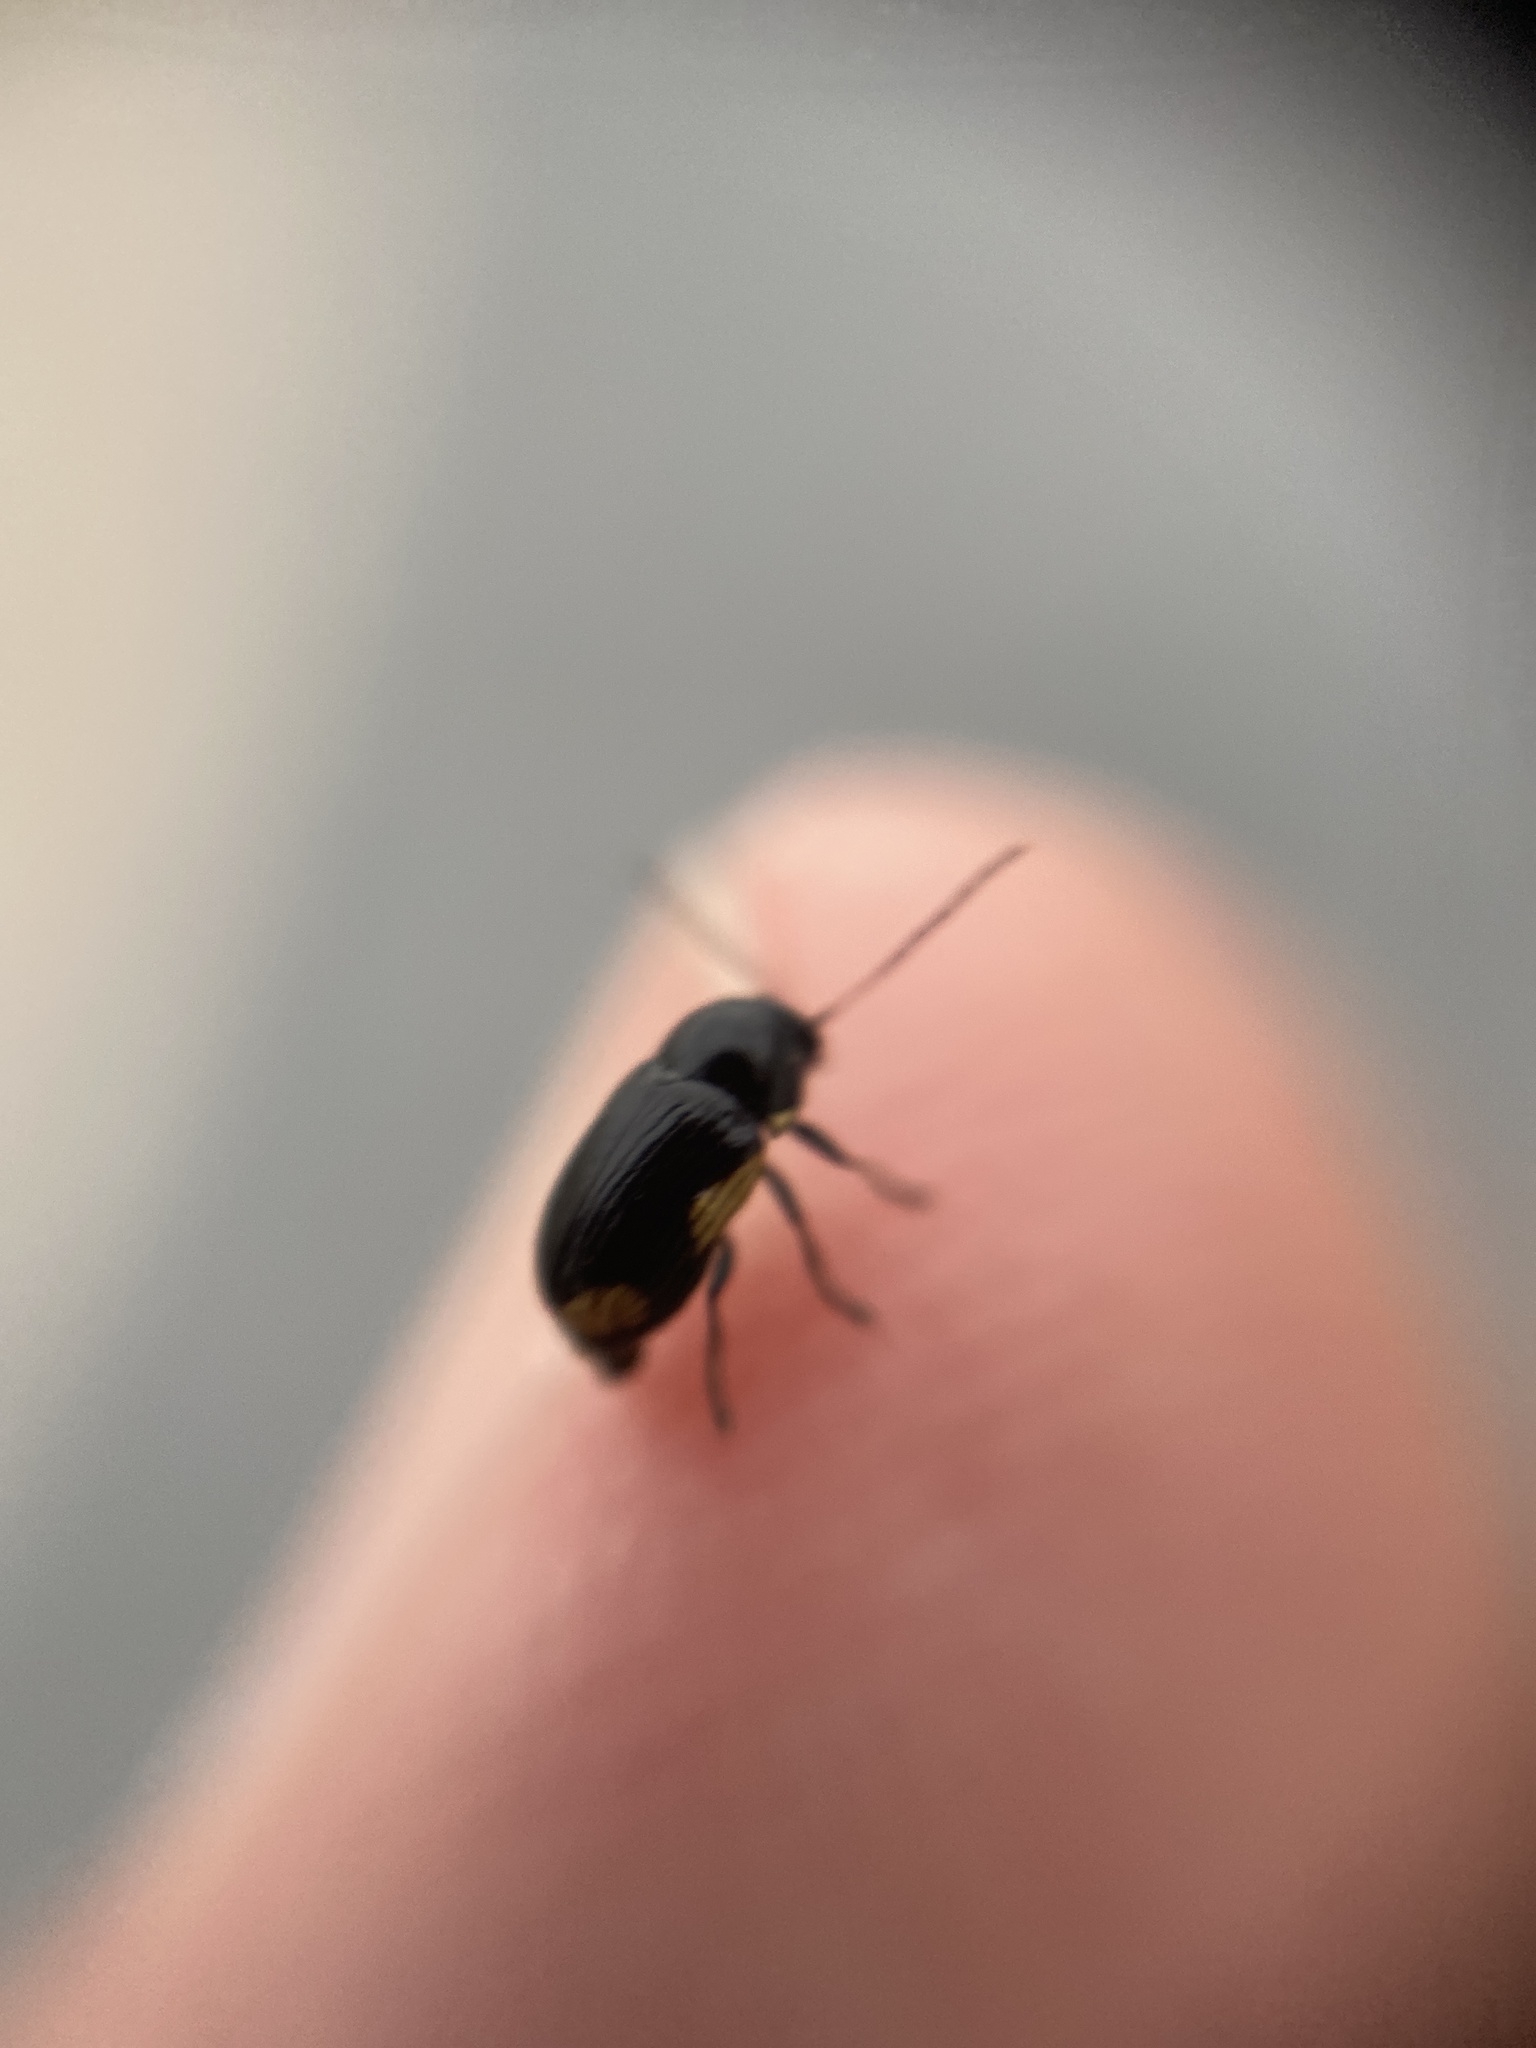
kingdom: Animalia
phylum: Arthropoda
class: Insecta
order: Coleoptera
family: Chrysomelidae
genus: Cryptocephalus
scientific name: Cryptocephalus moraei
